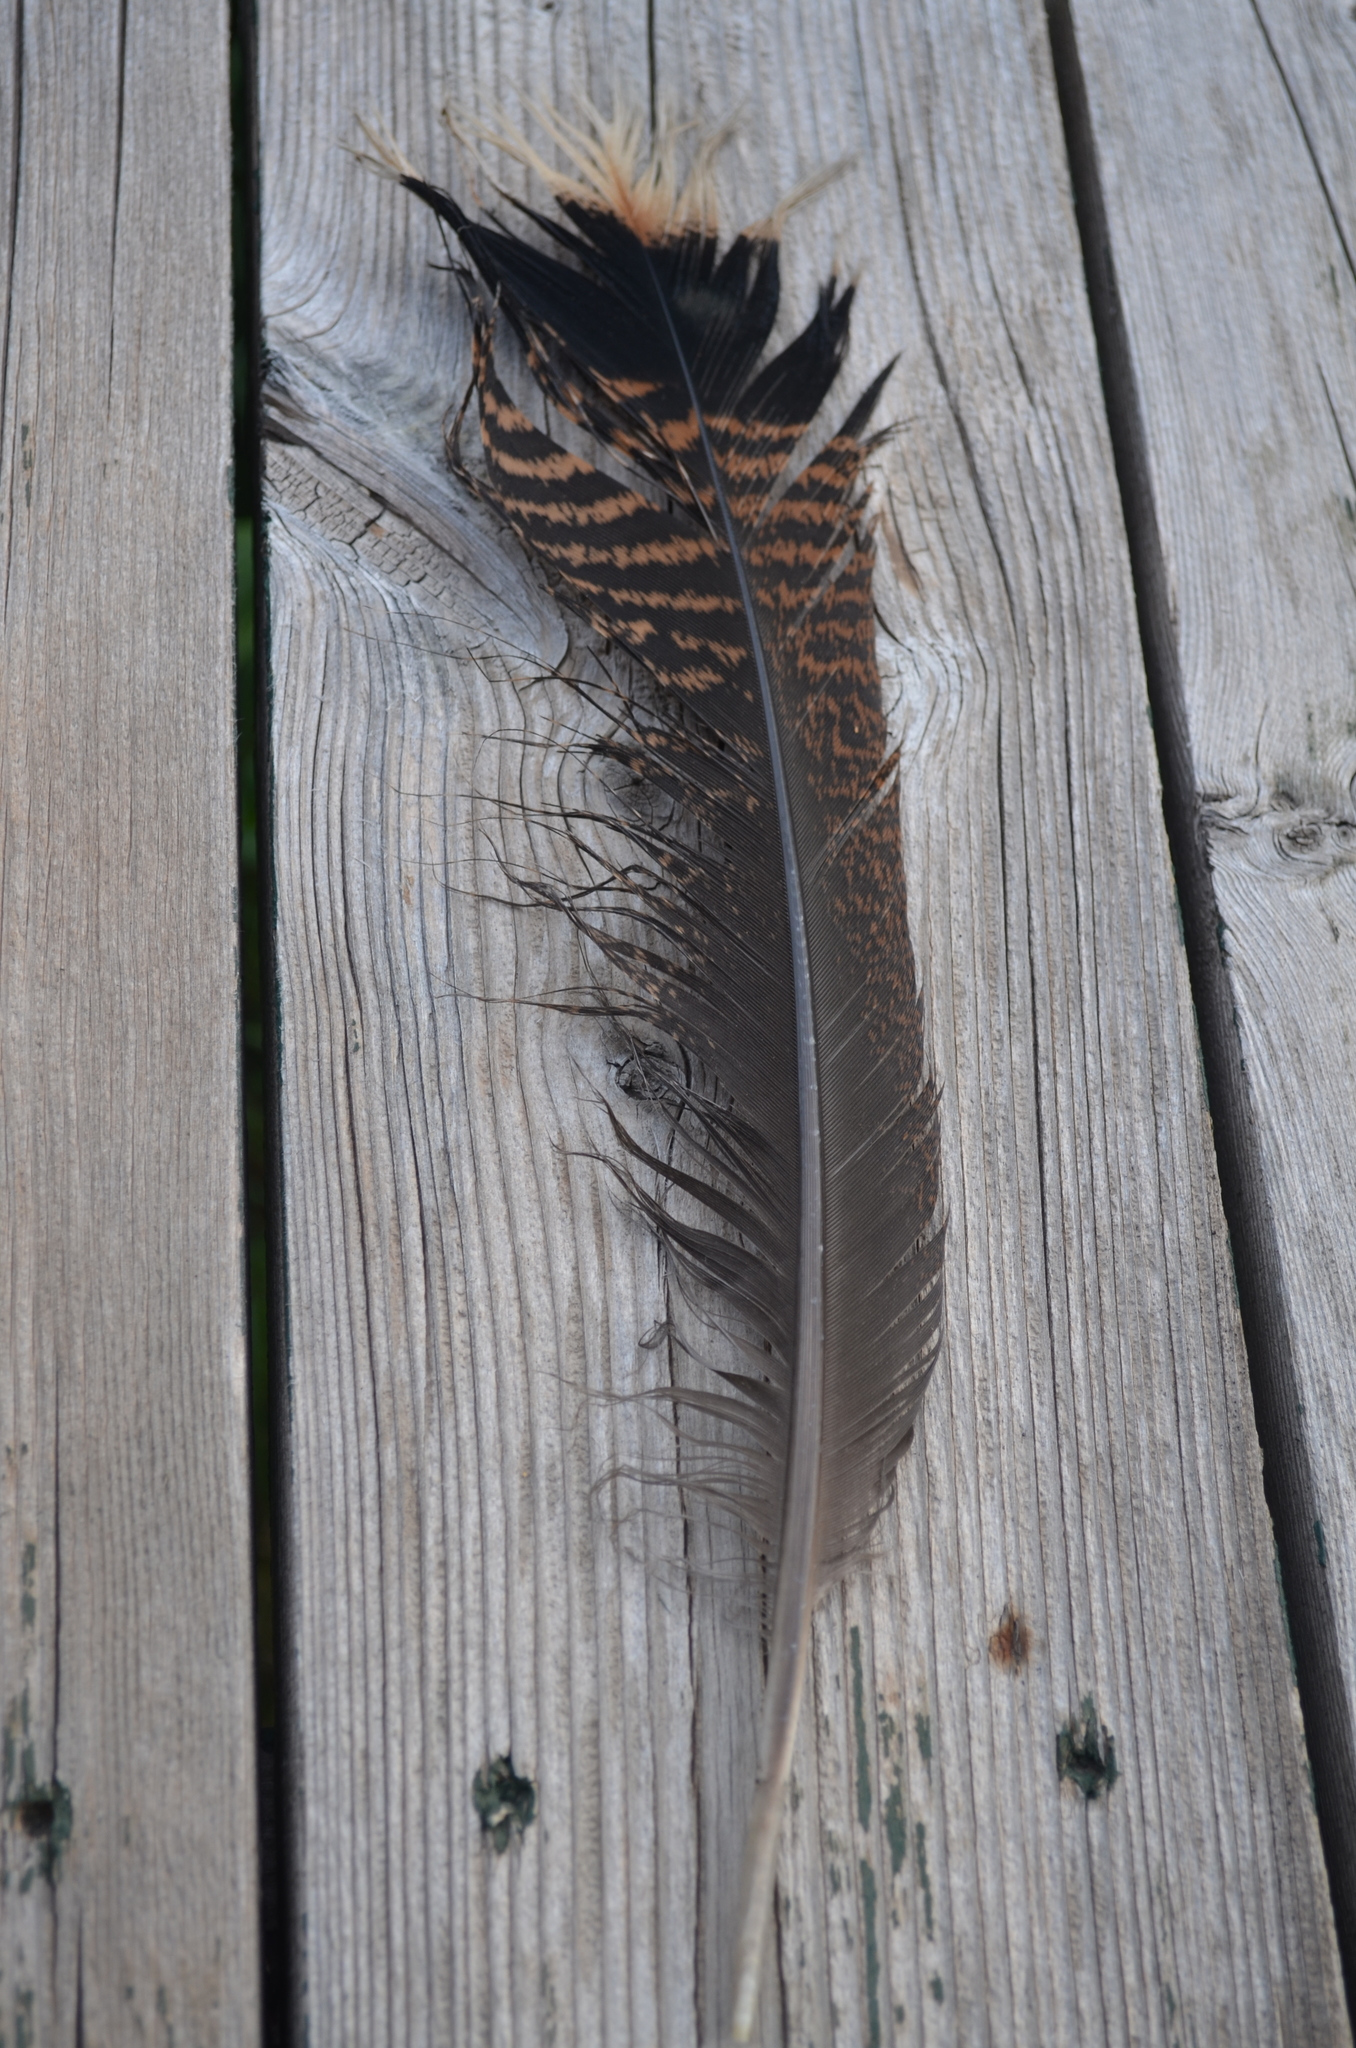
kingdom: Animalia
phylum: Chordata
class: Aves
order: Galliformes
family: Phasianidae
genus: Meleagris
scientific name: Meleagris gallopavo
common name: Wild turkey
